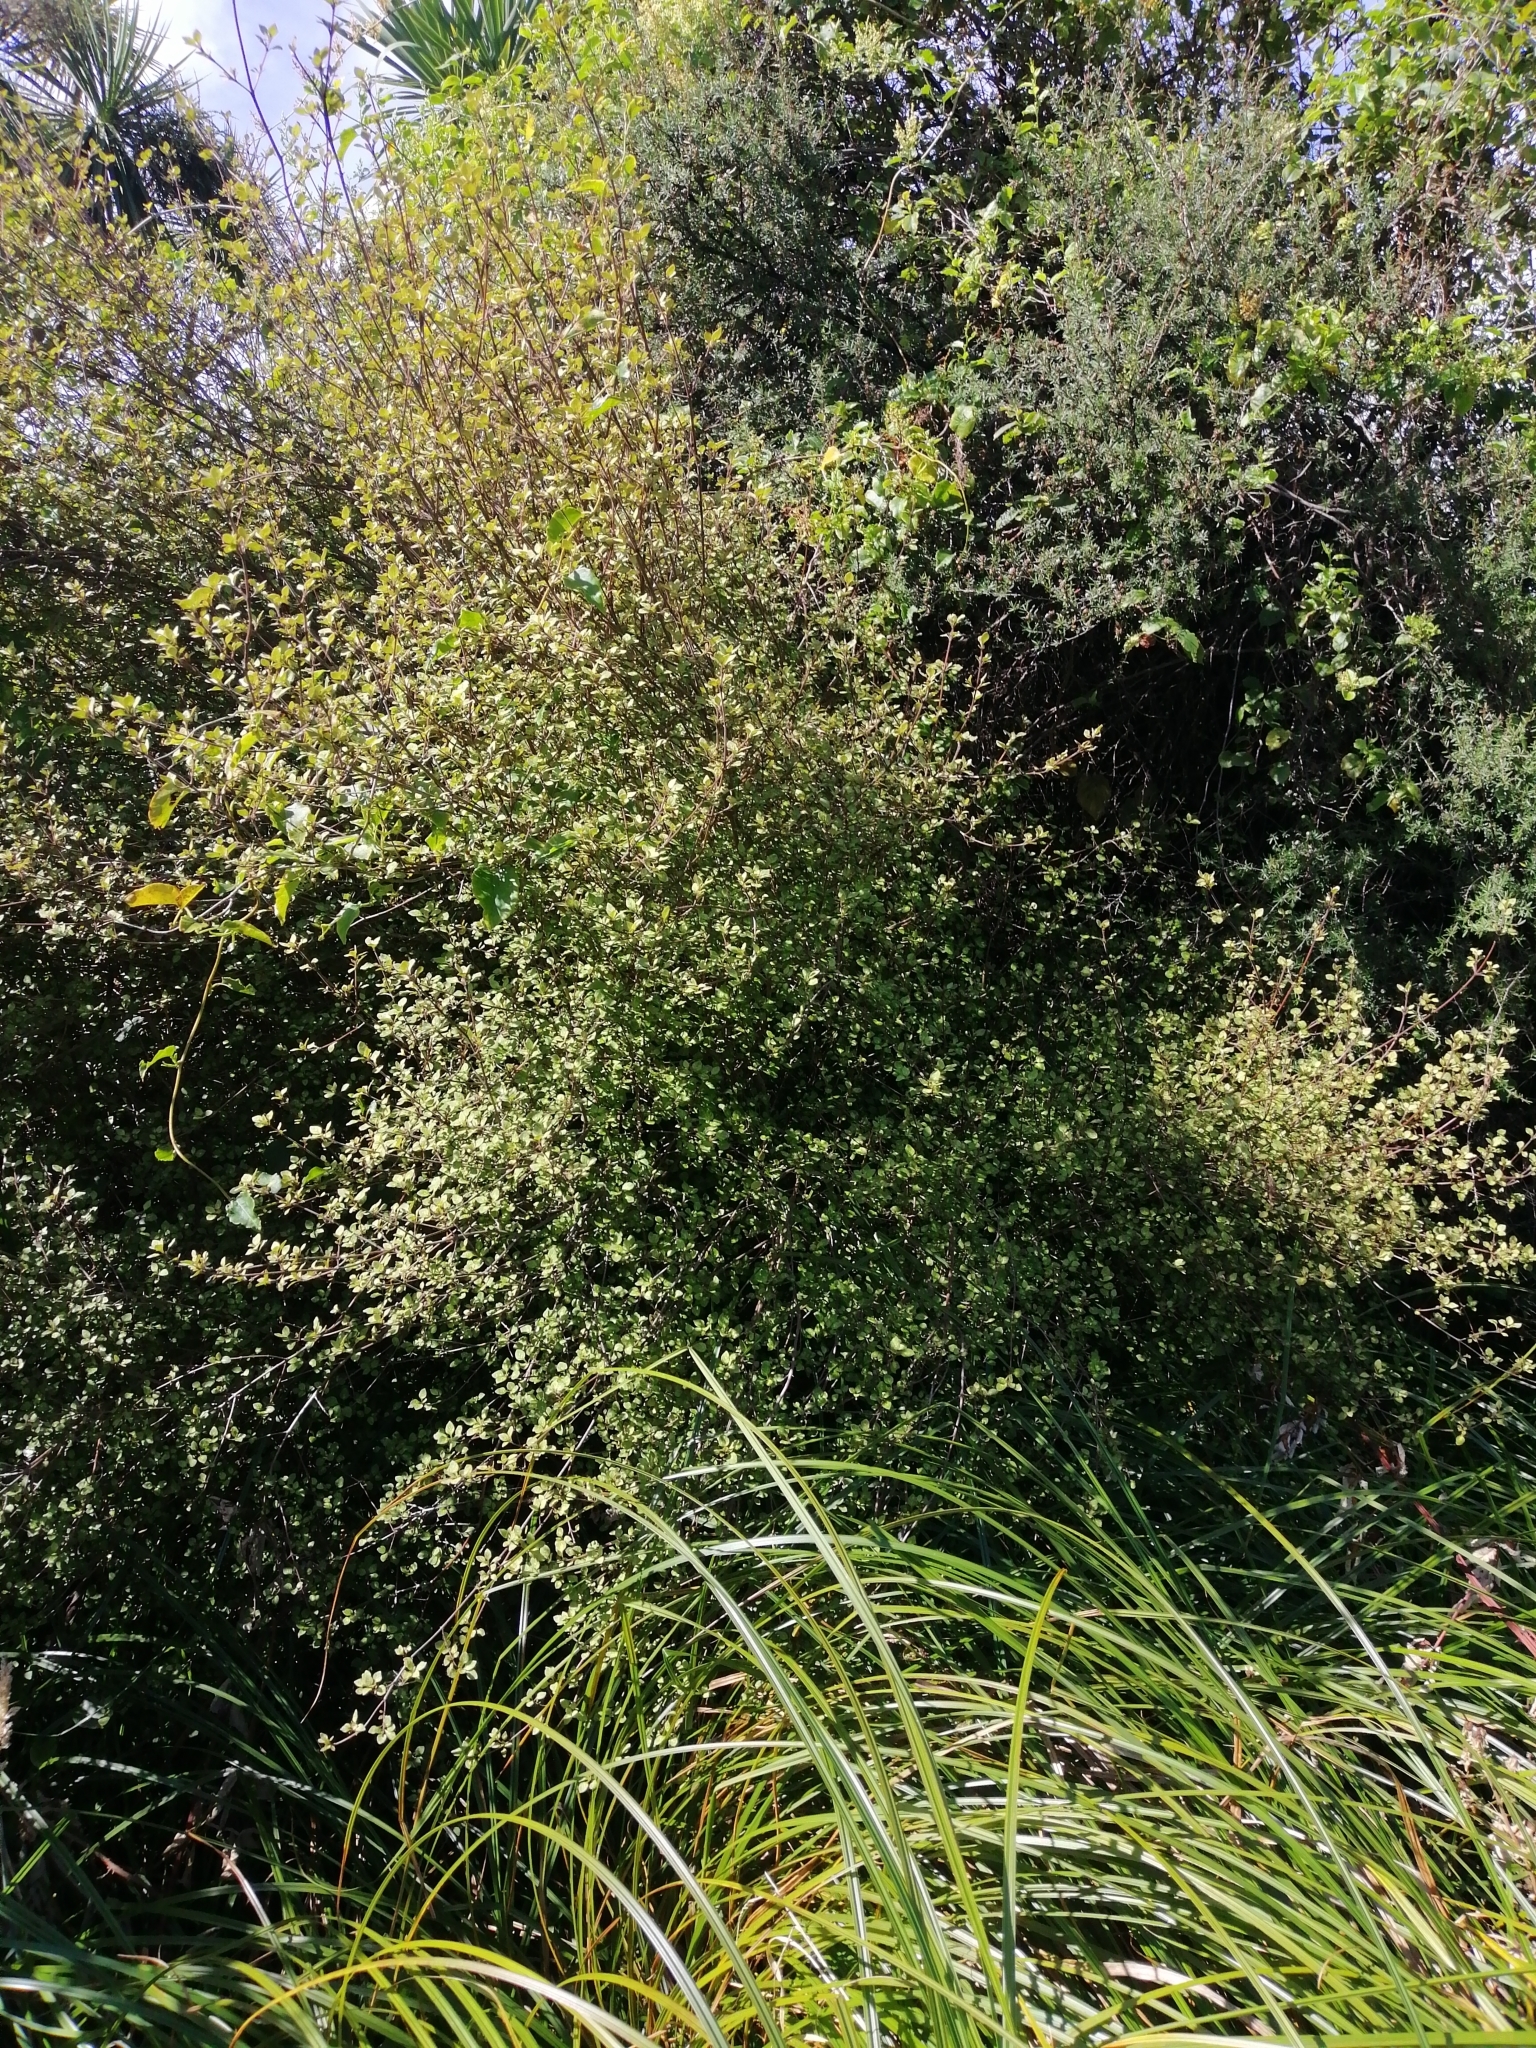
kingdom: Plantae
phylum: Tracheophyta
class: Magnoliopsida
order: Gentianales
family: Rubiaceae
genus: Coprosma
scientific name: Coprosma tenuicaulis
